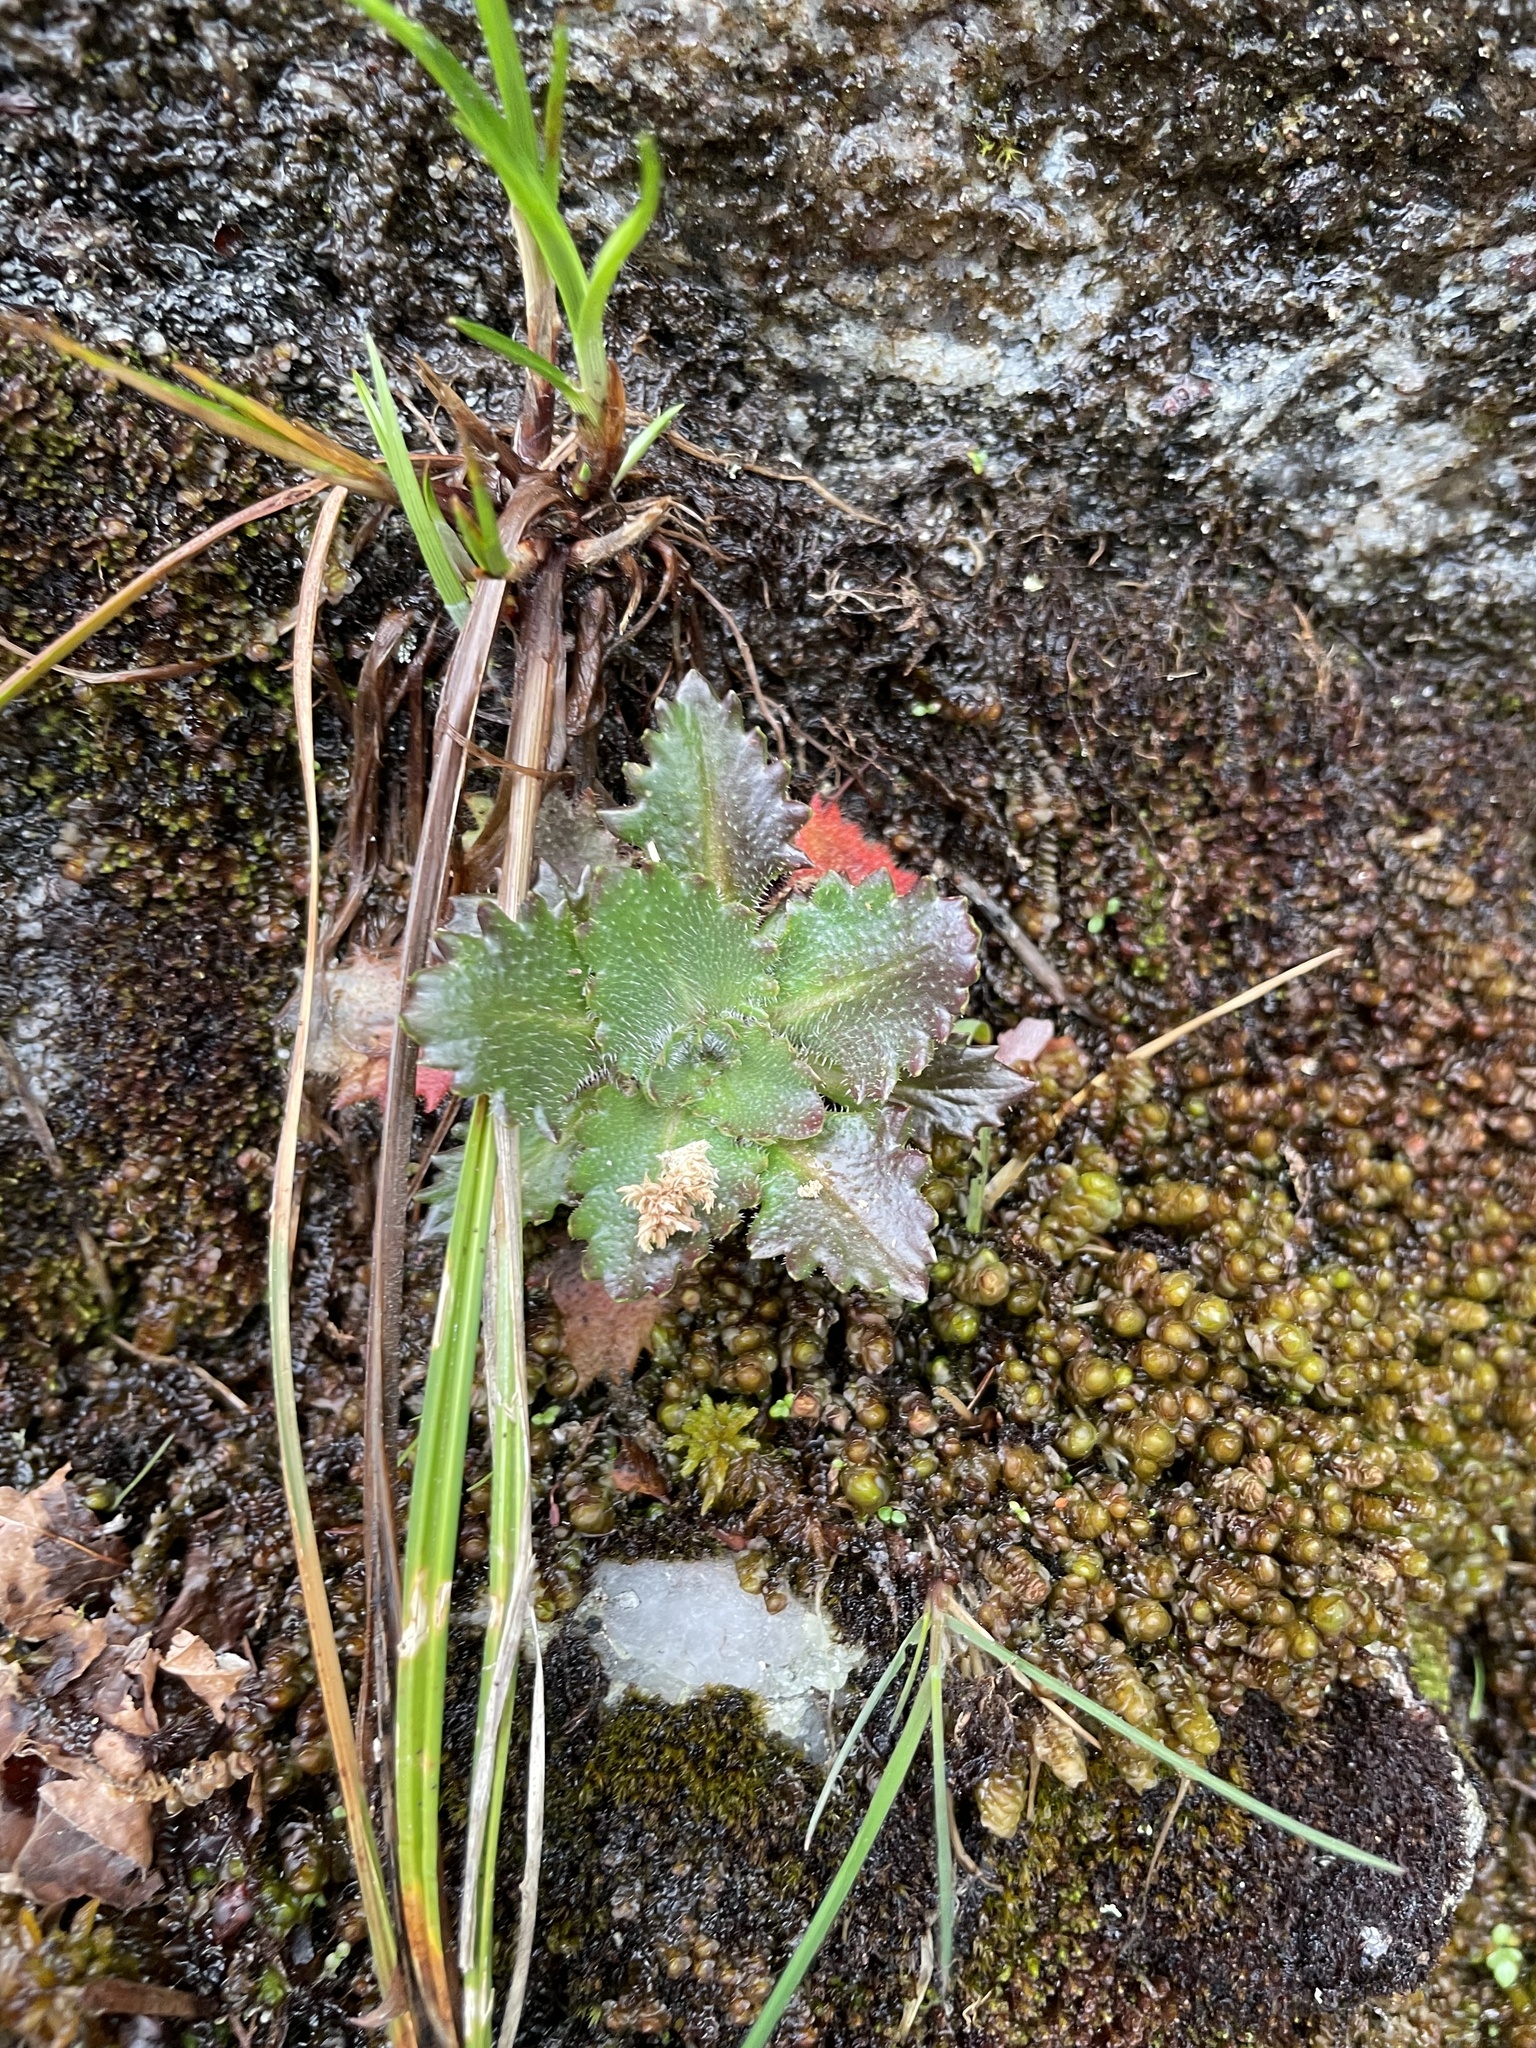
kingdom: Plantae
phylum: Tracheophyta
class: Magnoliopsida
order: Saxifragales
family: Saxifragaceae
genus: Micranthes
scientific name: Micranthes petiolaris
